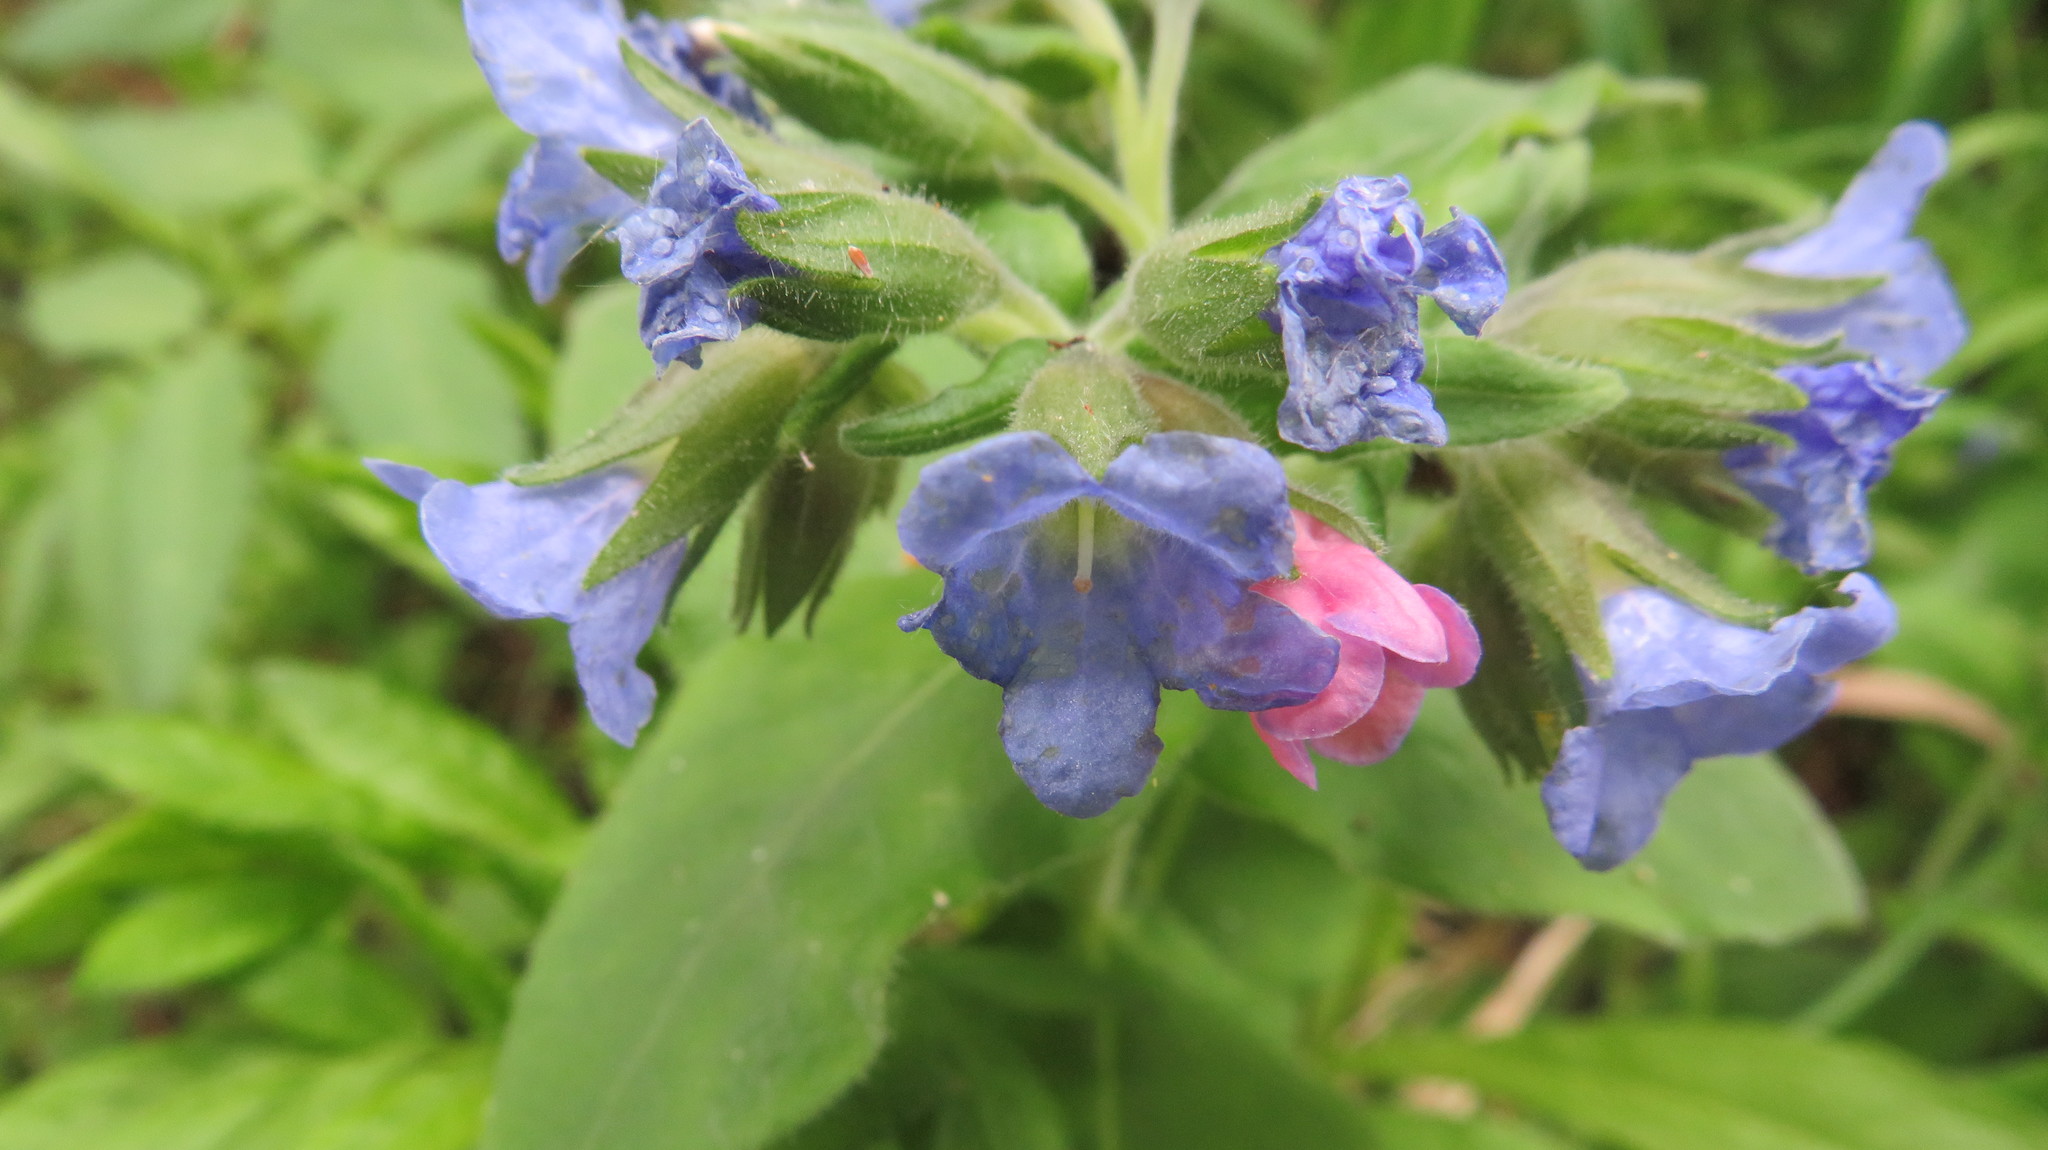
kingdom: Plantae
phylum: Tracheophyta
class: Magnoliopsida
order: Boraginales
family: Boraginaceae
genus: Pulmonaria
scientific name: Pulmonaria mollis
